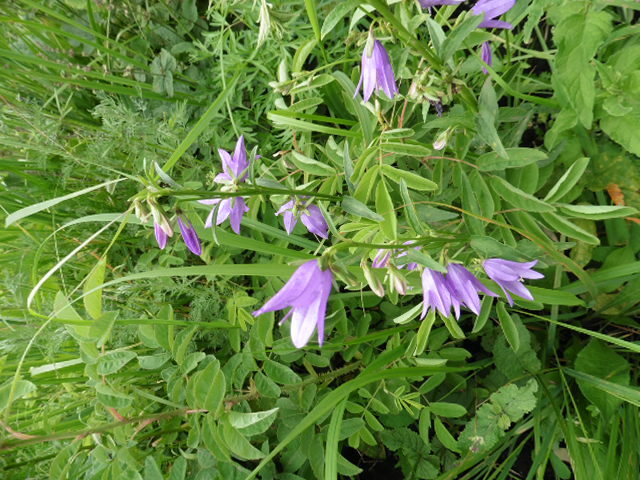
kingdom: Plantae
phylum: Tracheophyta
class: Magnoliopsida
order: Asterales
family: Campanulaceae
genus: Campanula
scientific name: Campanula rapunculoides
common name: Creeping bellflower
